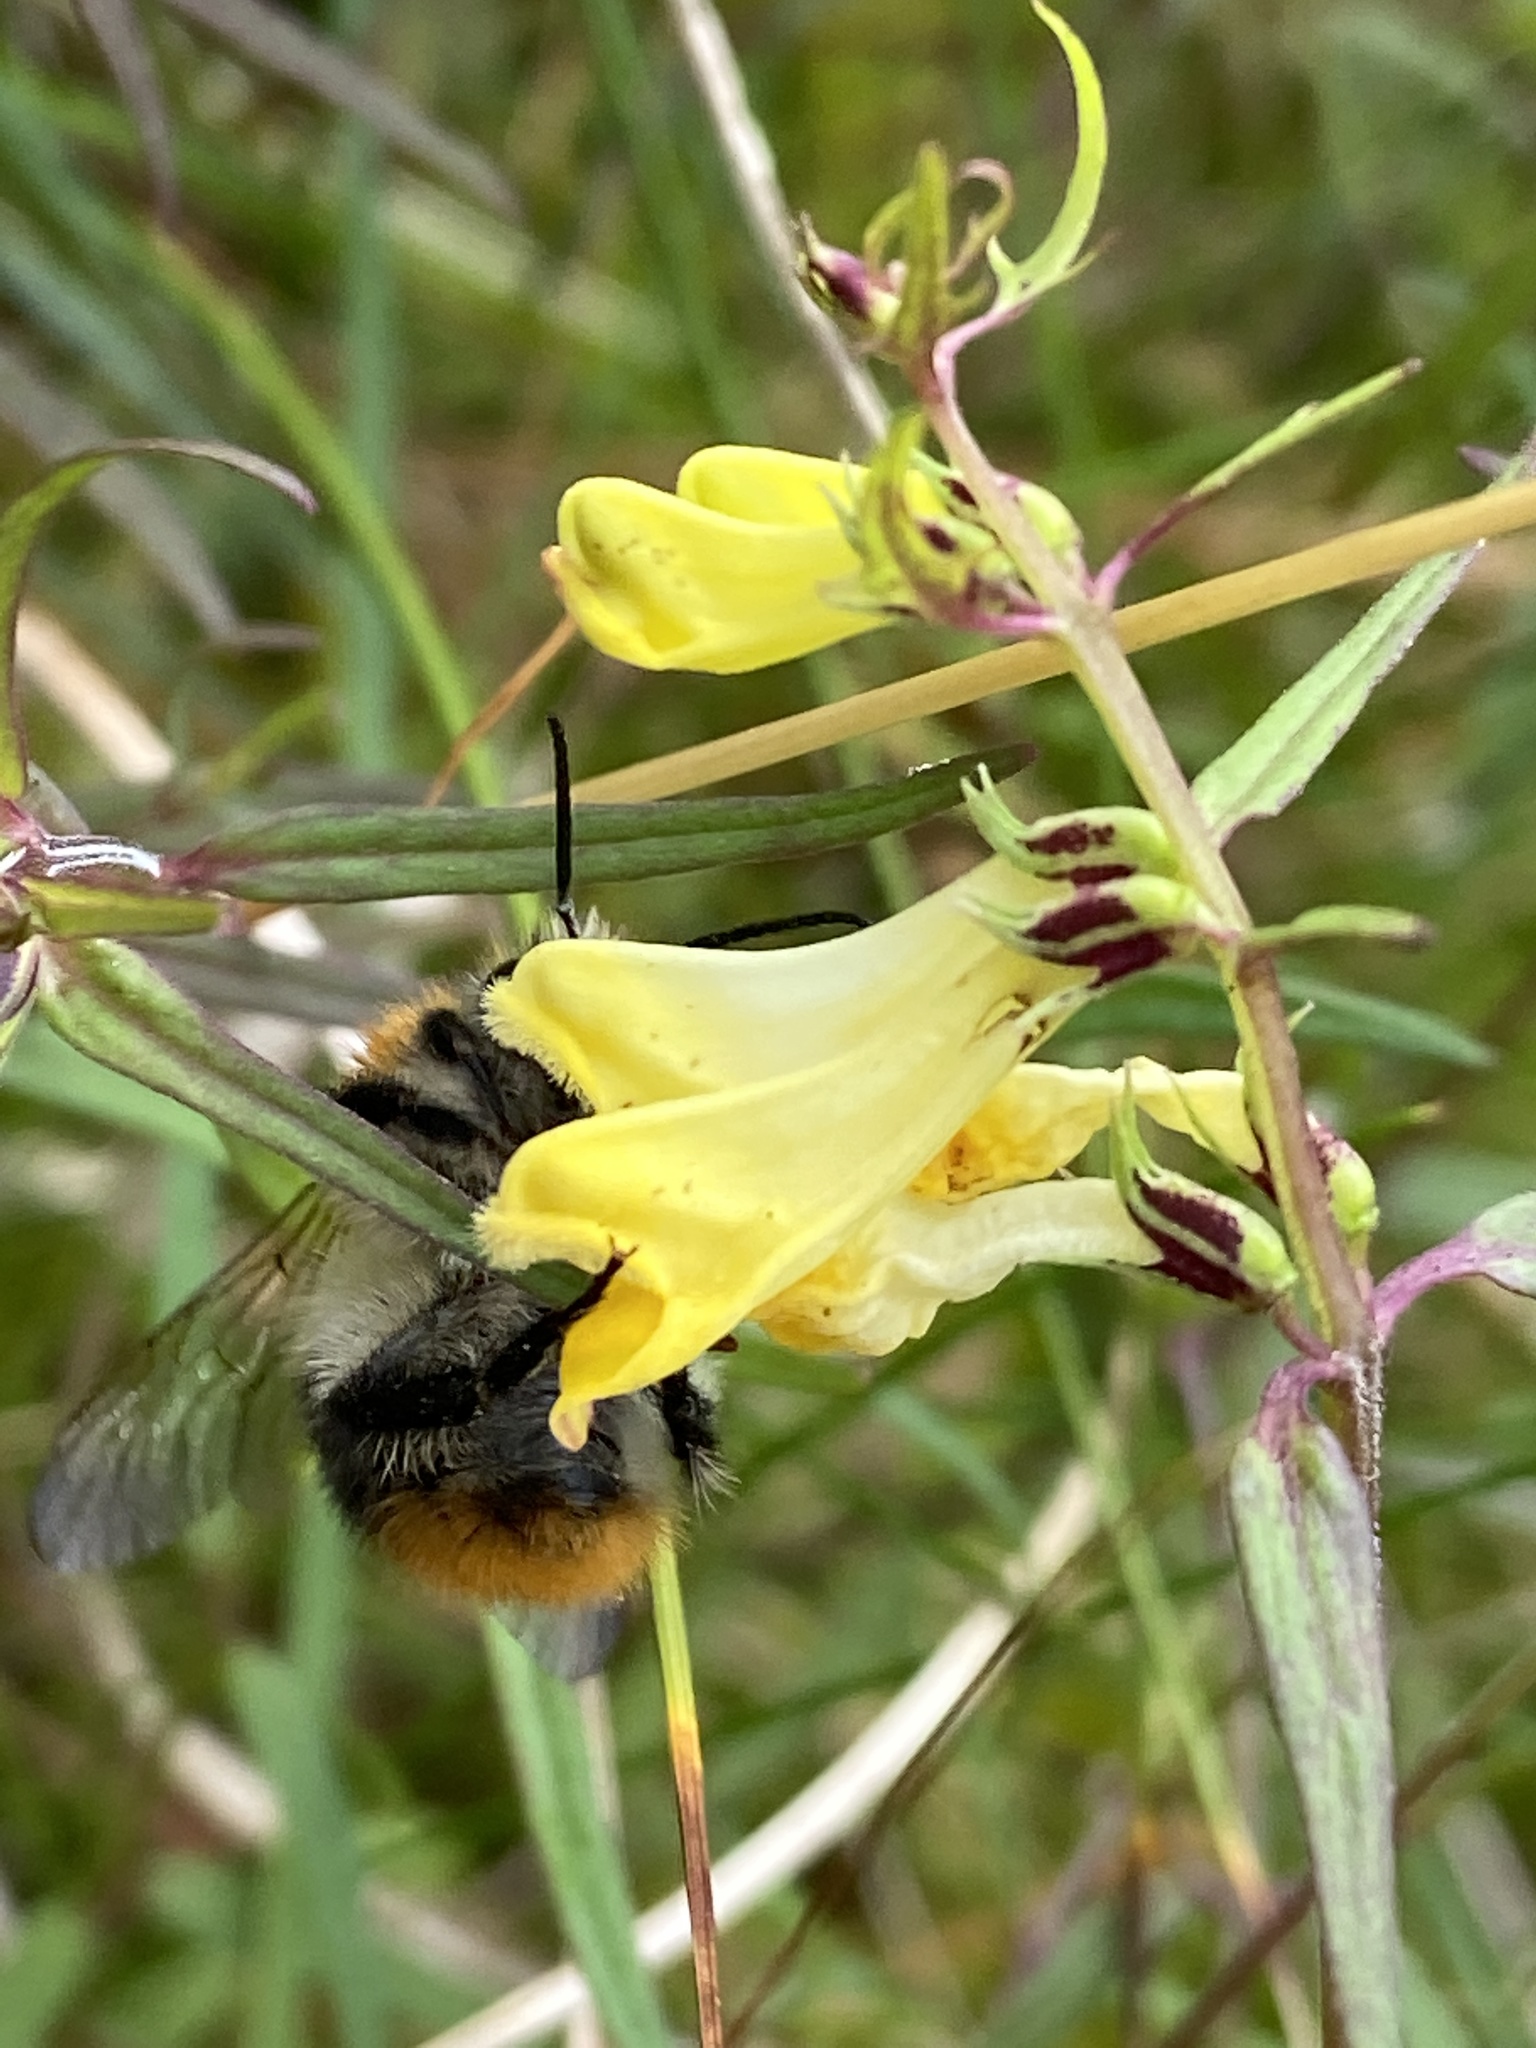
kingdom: Animalia
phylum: Arthropoda
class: Insecta
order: Hymenoptera
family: Apidae
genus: Bombus
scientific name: Bombus pascuorum
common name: Common carder bee
